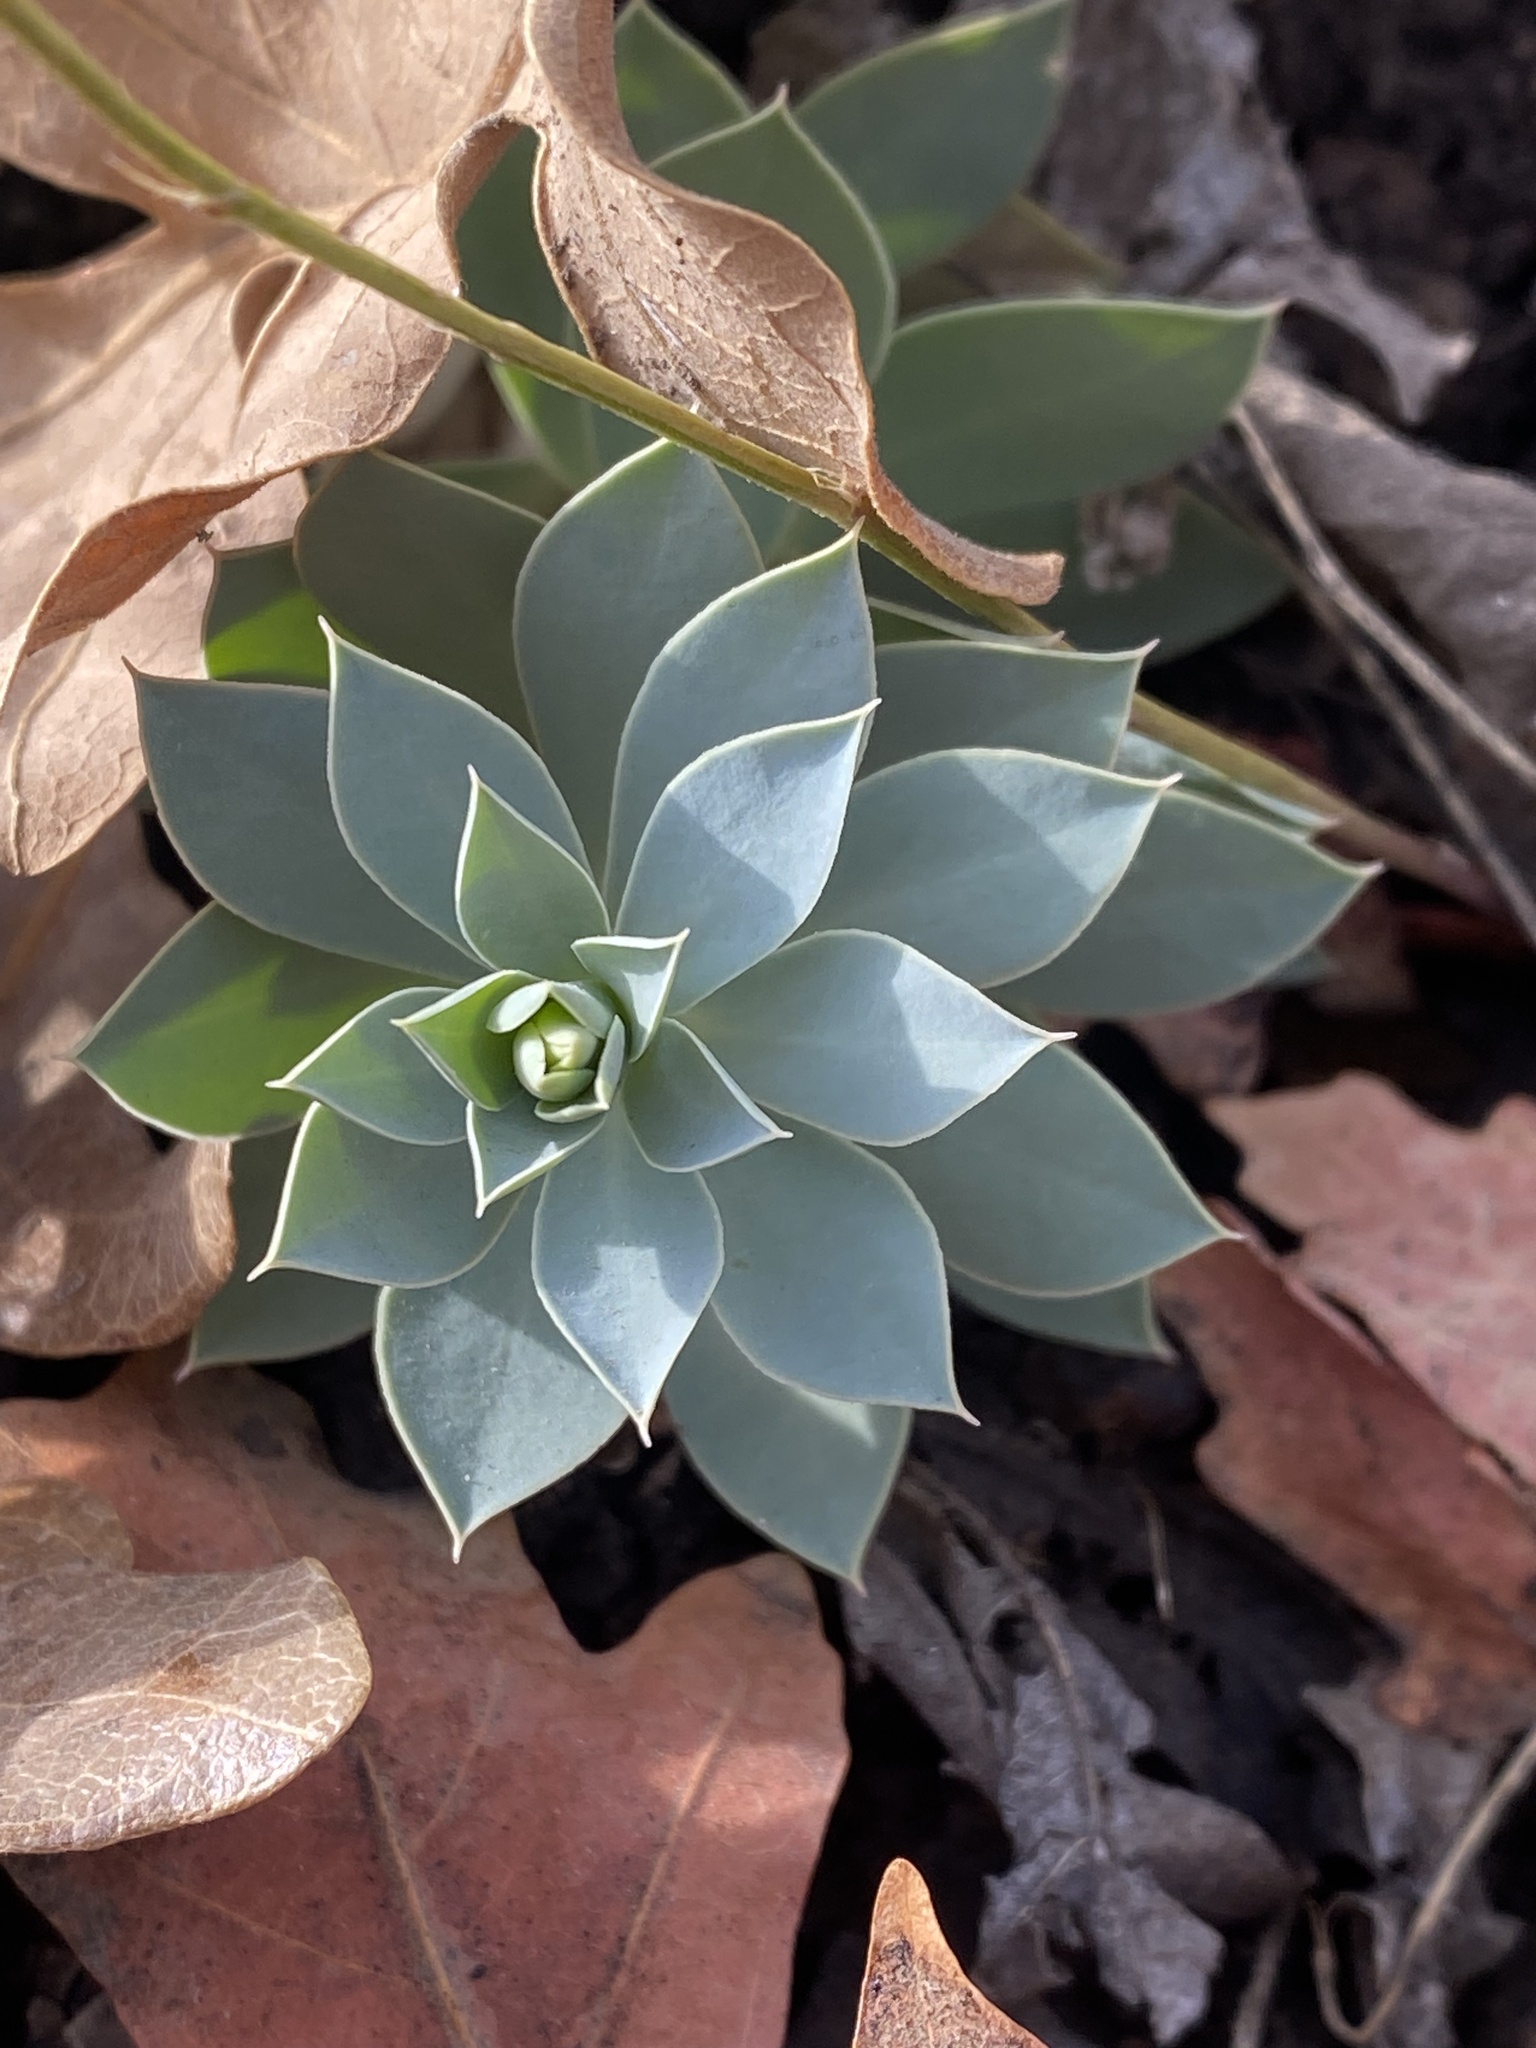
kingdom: Plantae
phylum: Tracheophyta
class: Magnoliopsida
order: Malpighiales
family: Euphorbiaceae
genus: Euphorbia
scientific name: Euphorbia myrsinites
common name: Myrtle spurge
